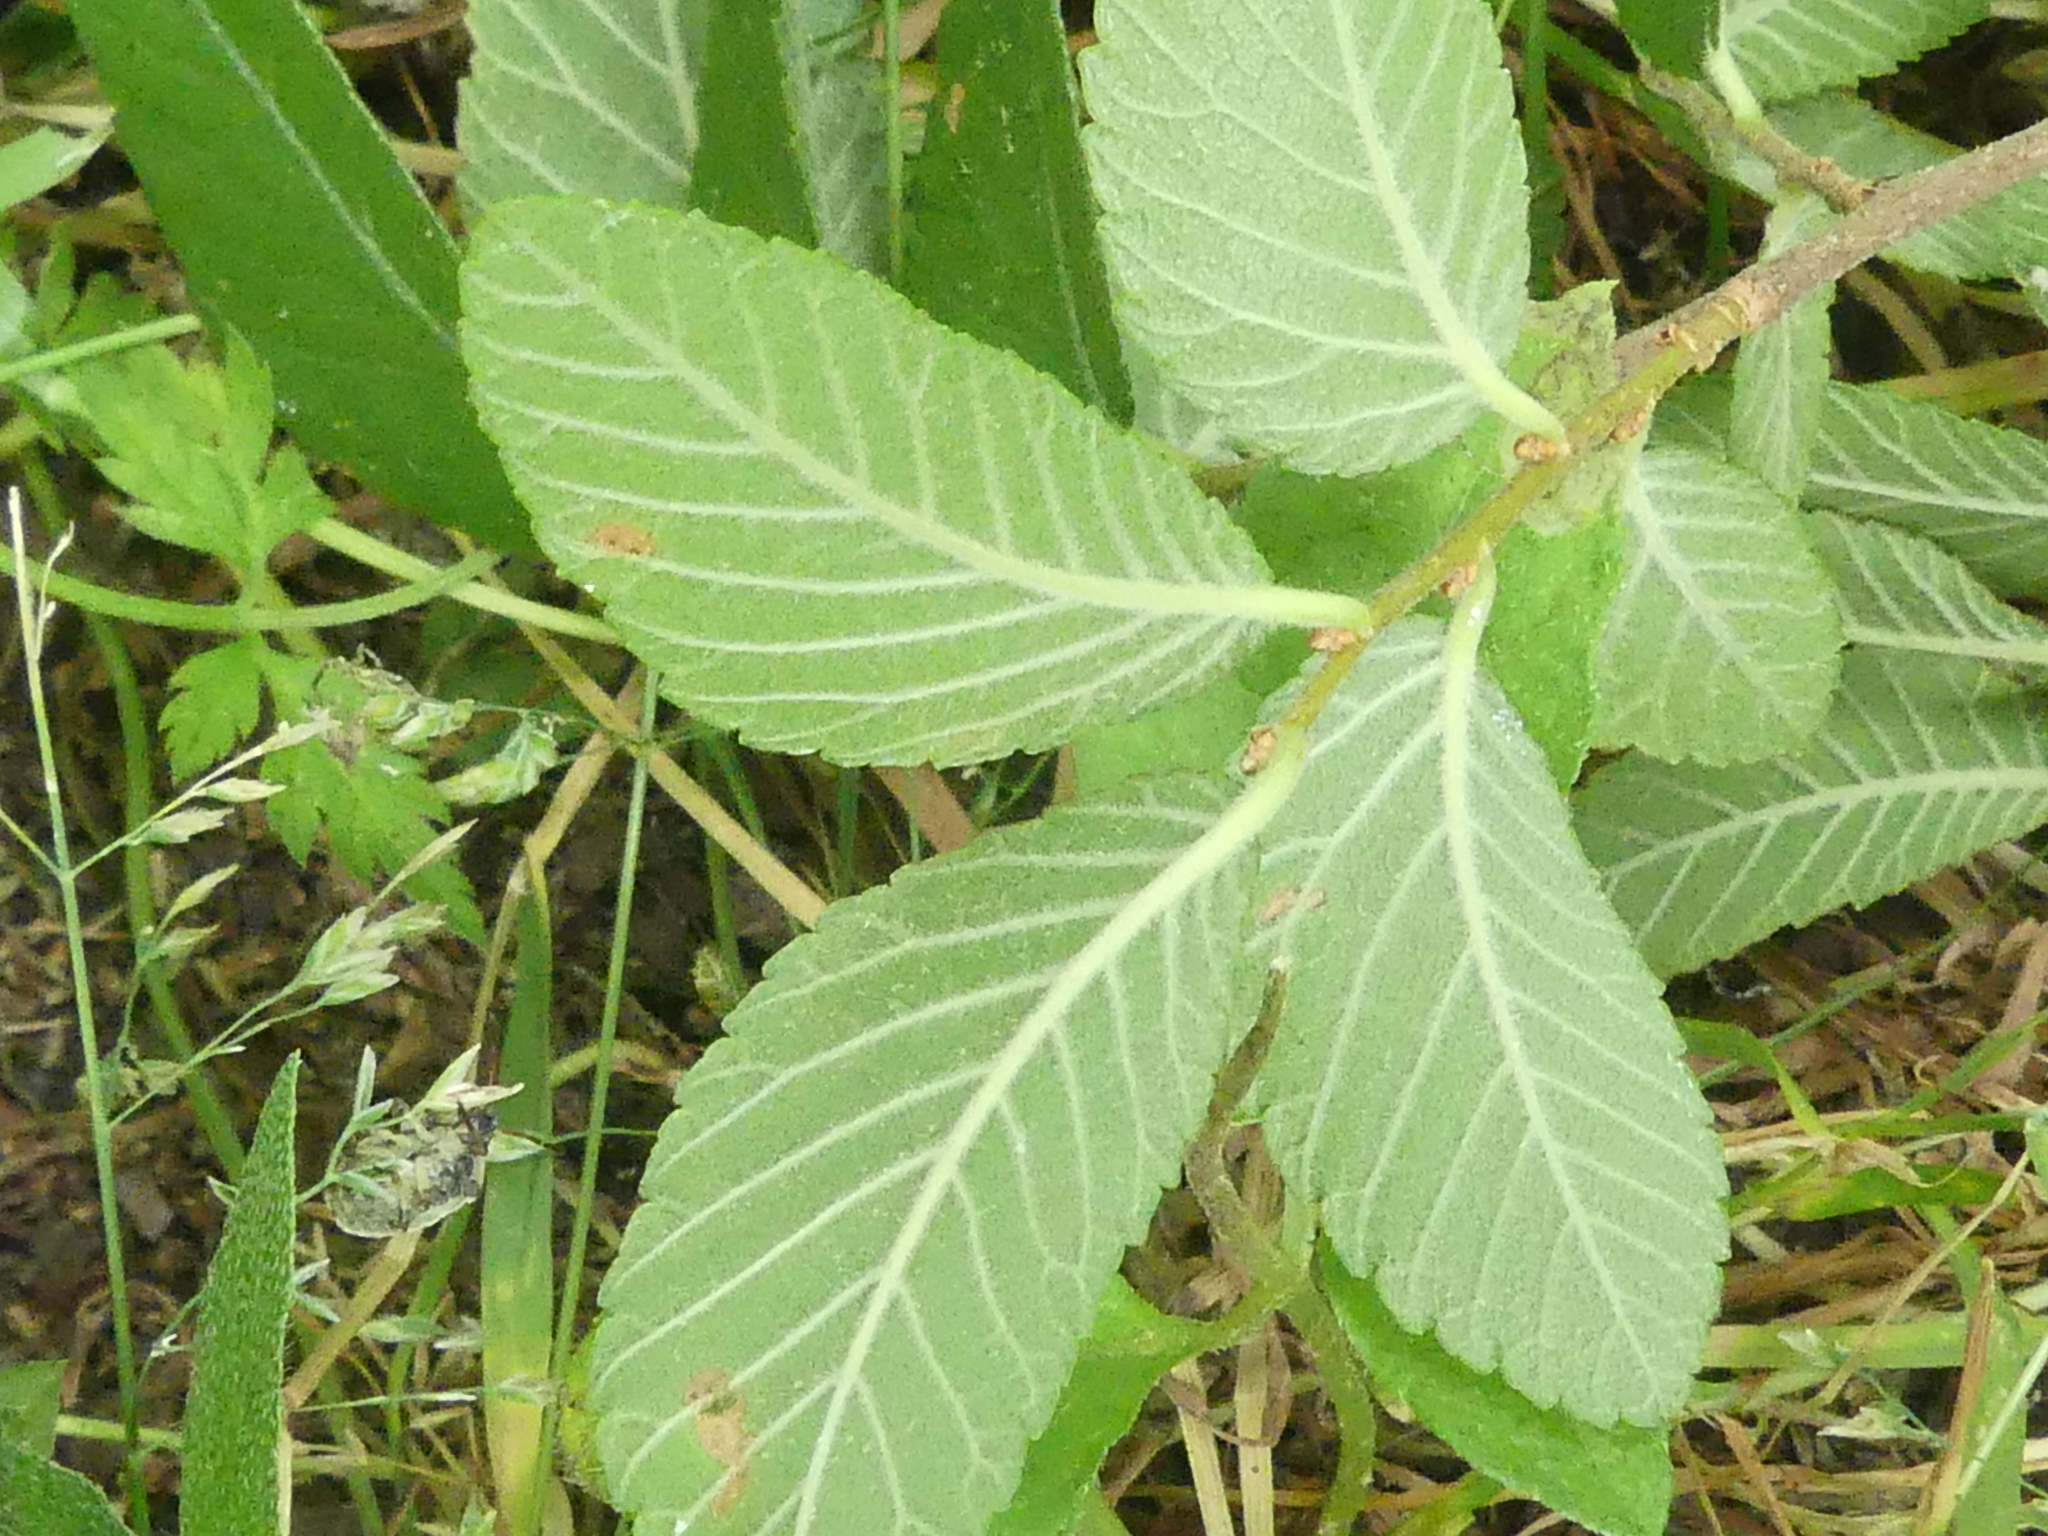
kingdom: Plantae
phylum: Tracheophyta
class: Magnoliopsida
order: Rosales
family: Ulmaceae
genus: Ulmus
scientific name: Ulmus crassifolia
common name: Basket elm
